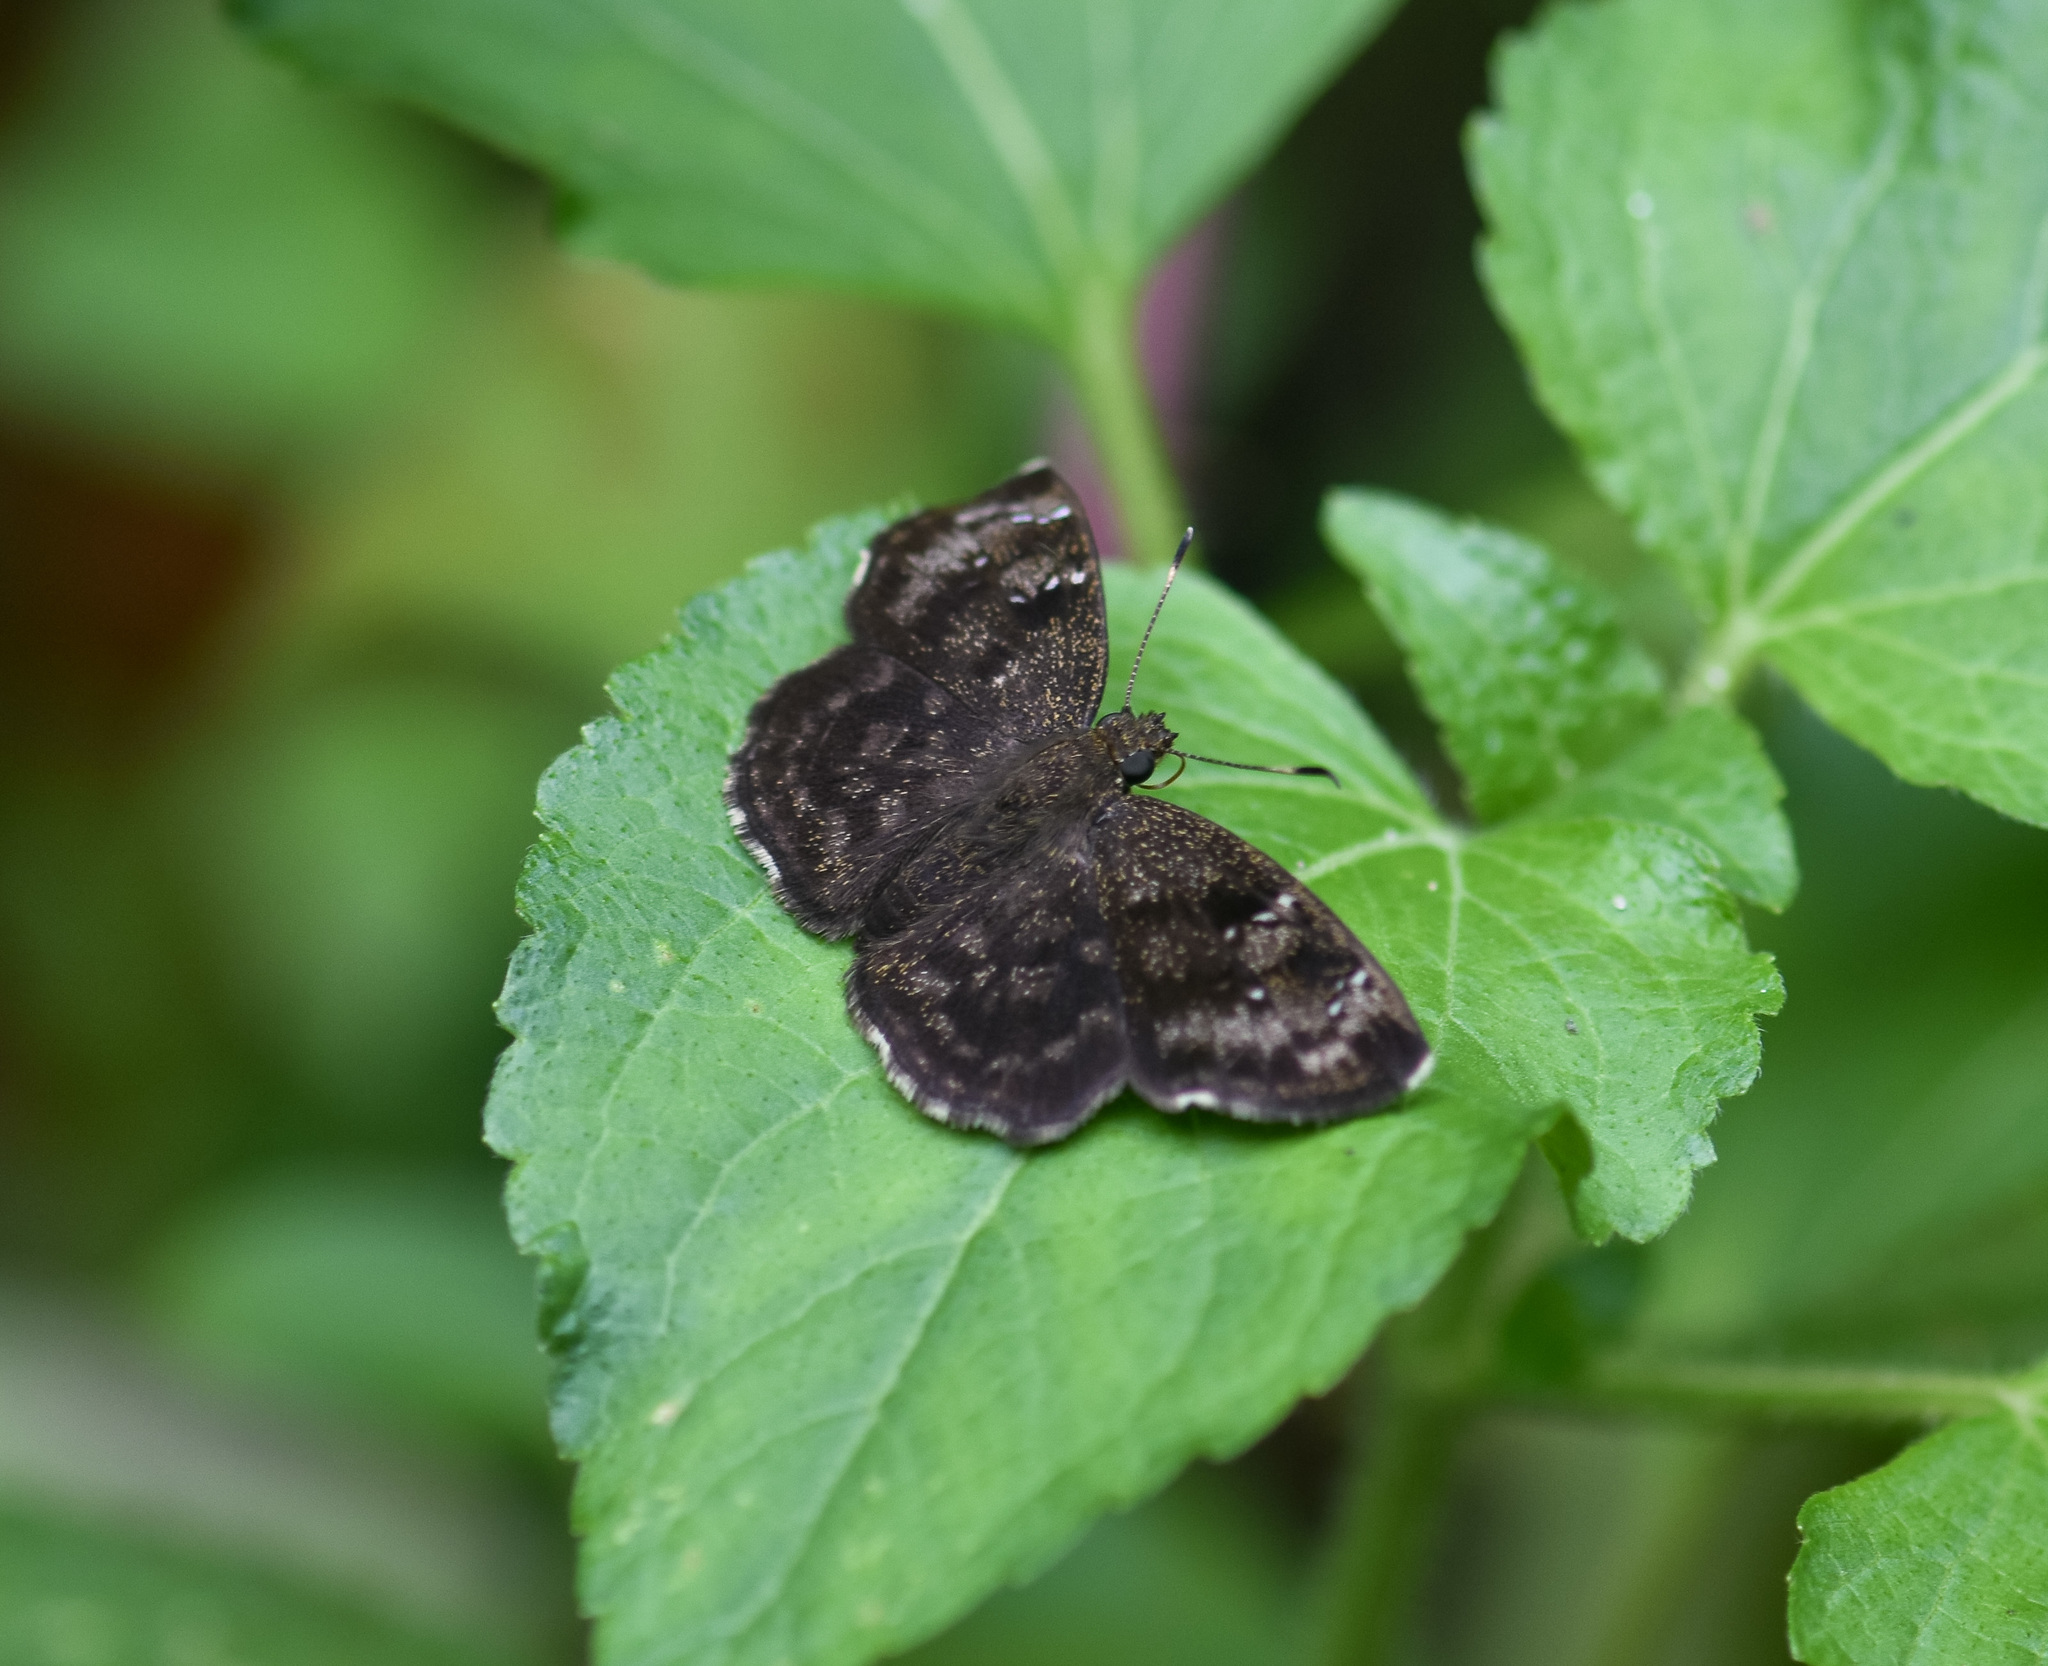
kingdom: Animalia
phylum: Arthropoda
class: Insecta
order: Lepidoptera
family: Hesperiidae
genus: Sarangesa
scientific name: Sarangesa dasahara
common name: Common small flat
